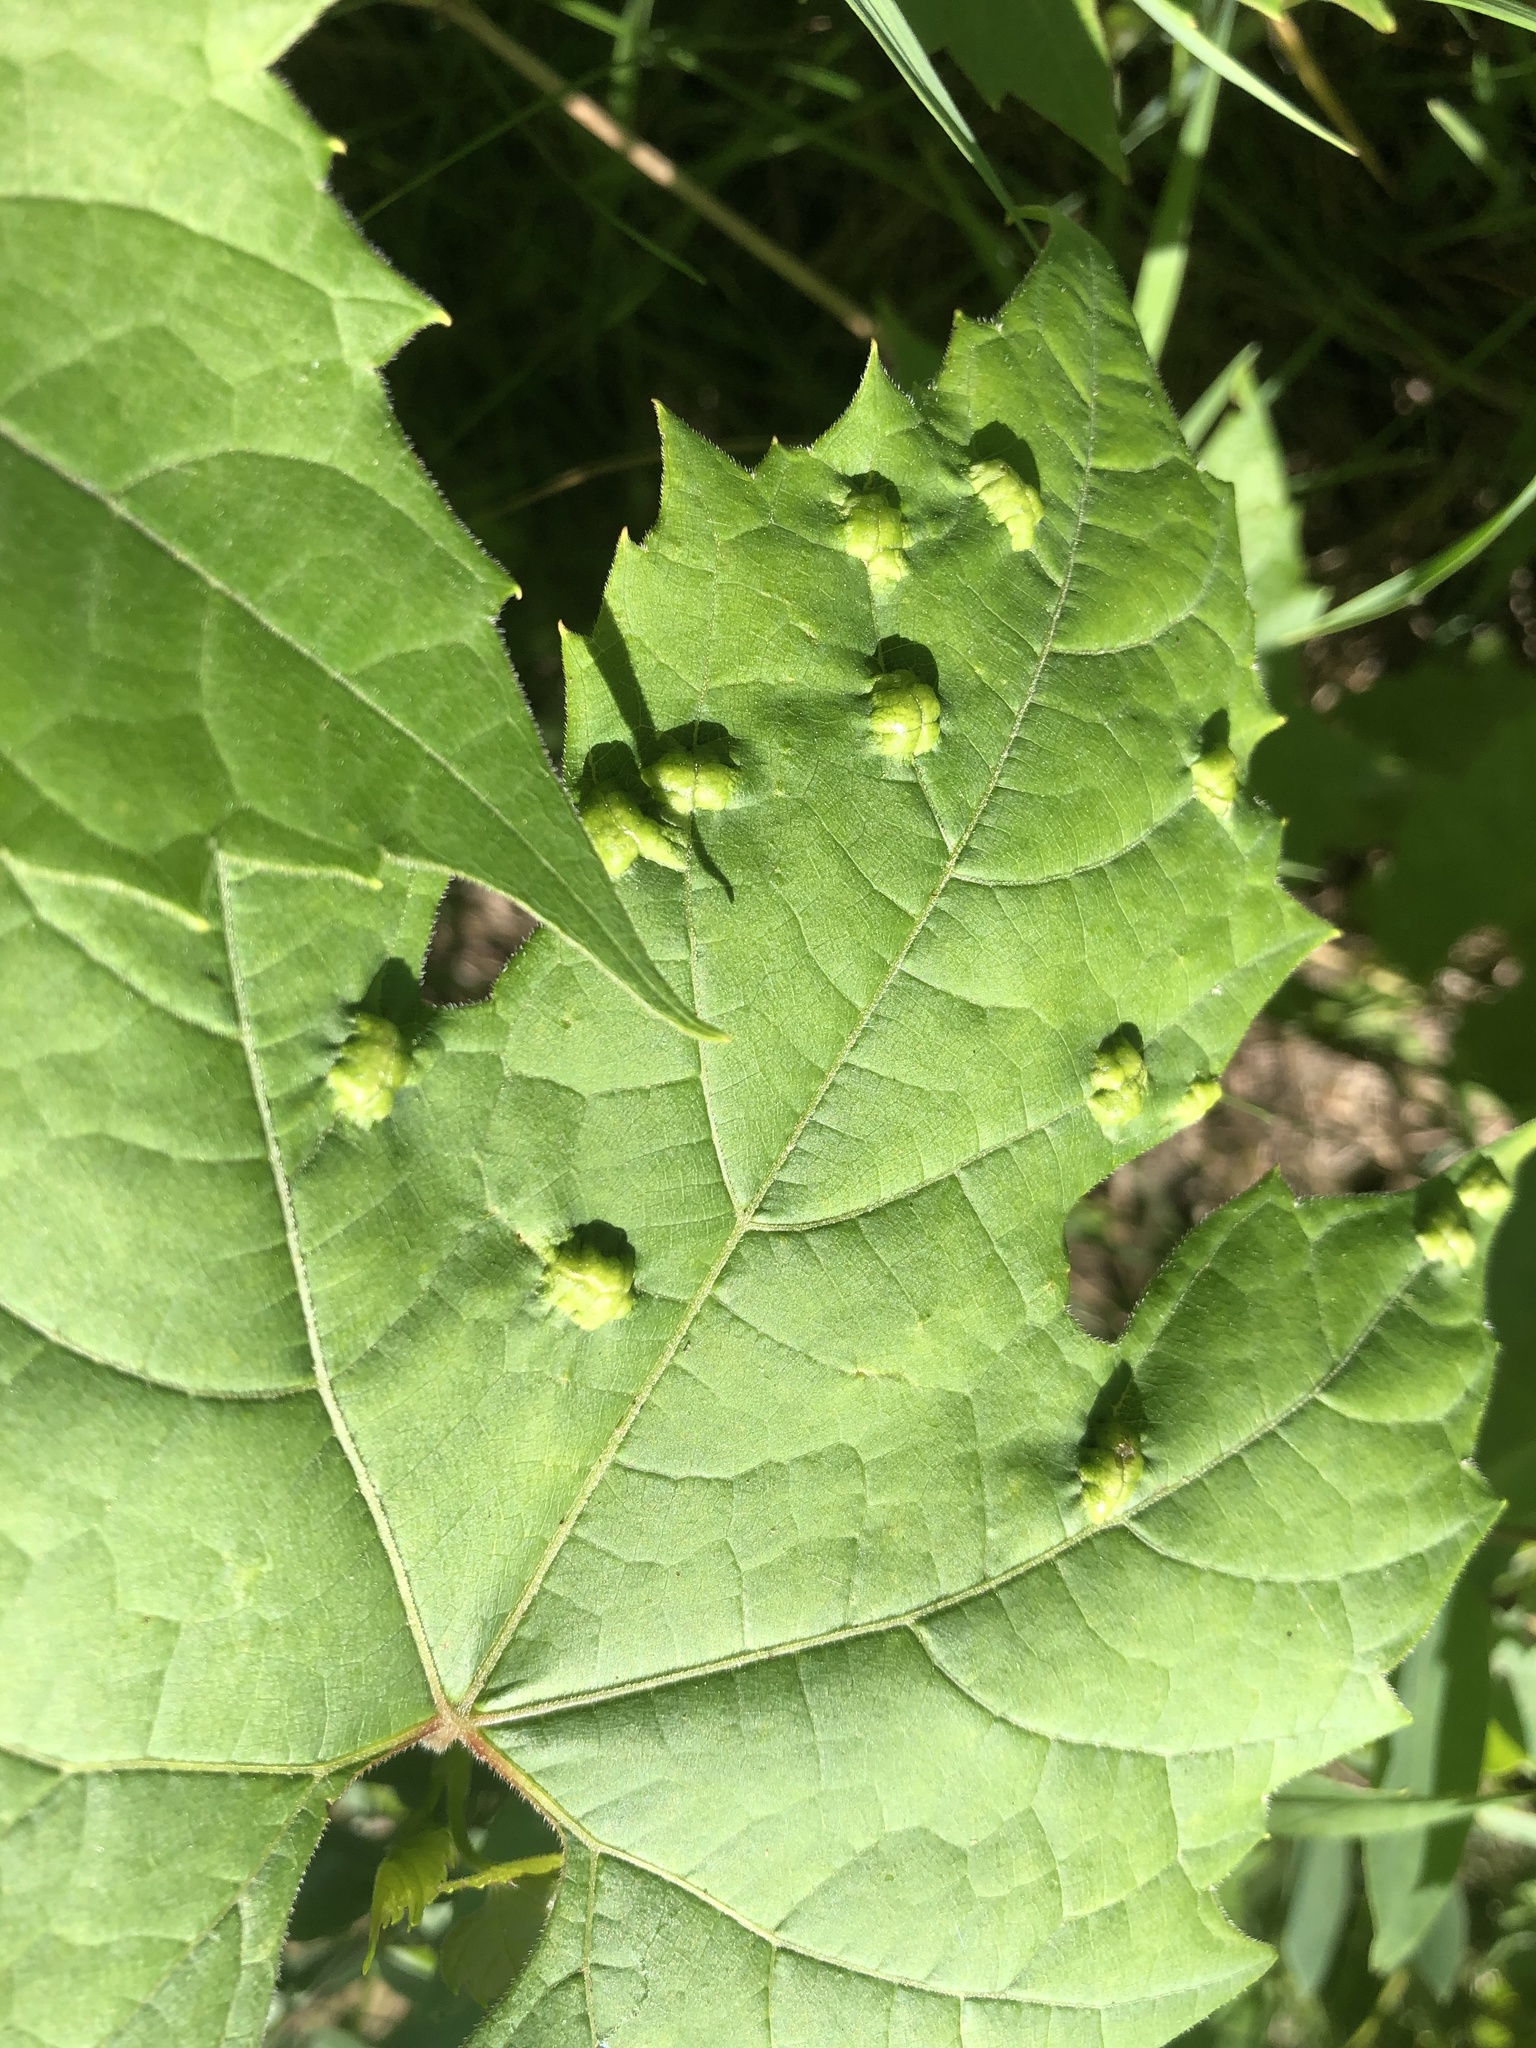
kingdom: Animalia
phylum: Arthropoda
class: Insecta
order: Lepidoptera
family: Heliozelidae
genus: Heliozela
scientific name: Heliozela aesella
